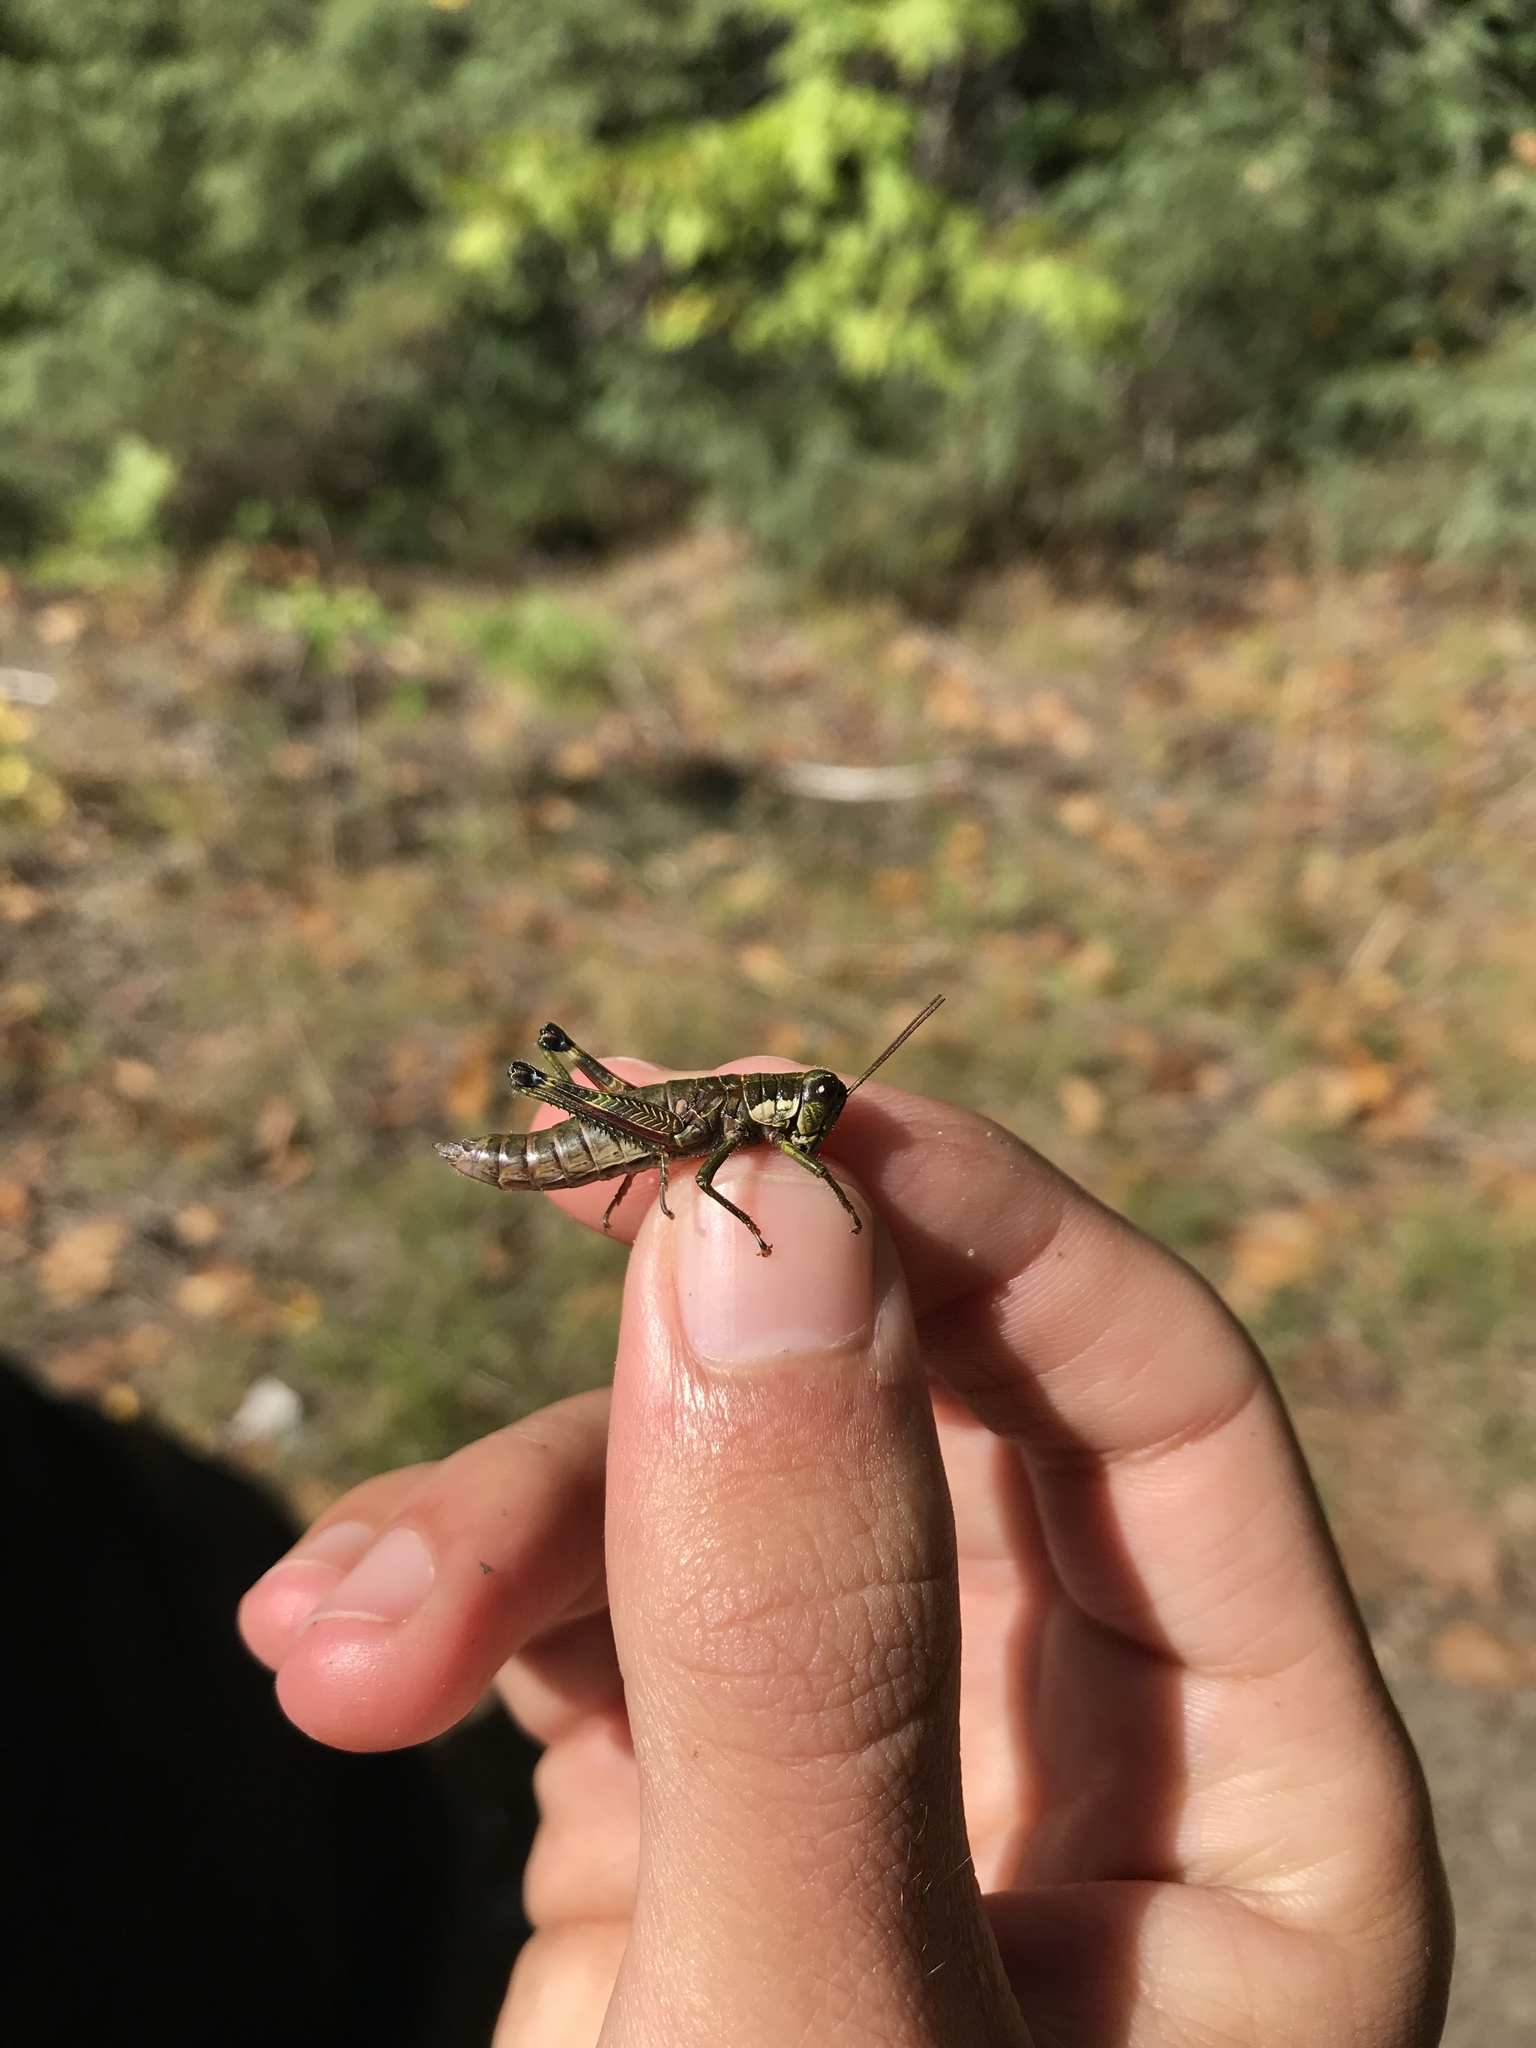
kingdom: Animalia
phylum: Arthropoda
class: Insecta
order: Orthoptera
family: Acrididae
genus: Booneacris
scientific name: Booneacris glacialis
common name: Wingless mountain grasshopper
